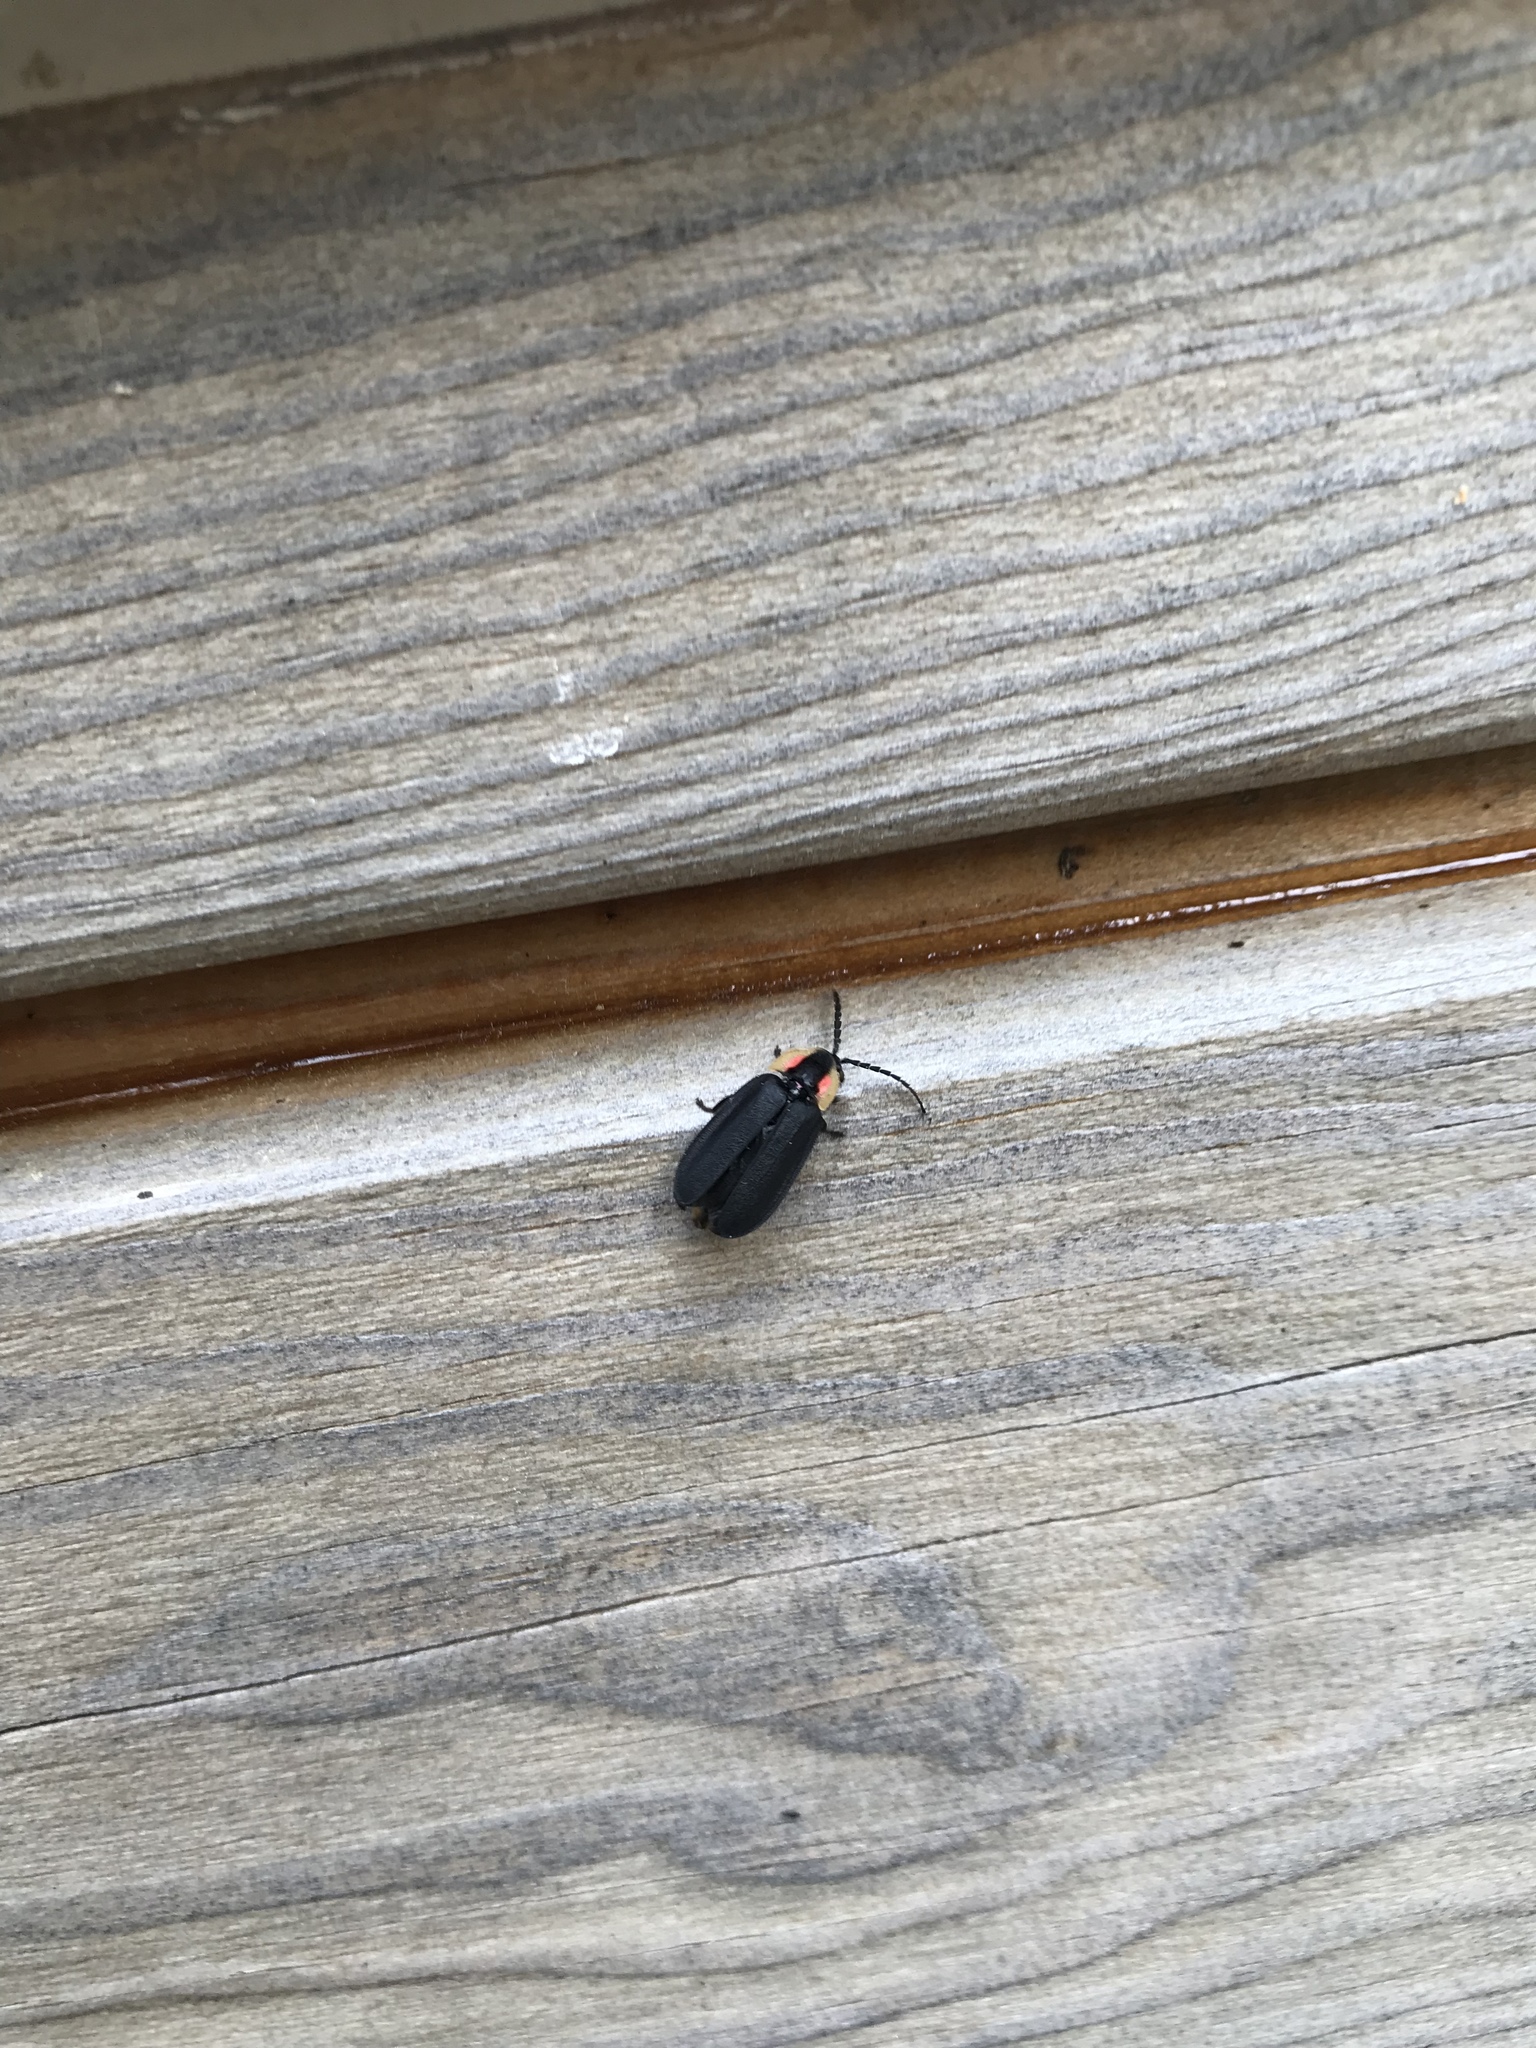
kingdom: Animalia
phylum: Arthropoda
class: Insecta
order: Coleoptera
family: Lampyridae
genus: Lucidota
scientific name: Lucidota atra
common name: Black firefly
